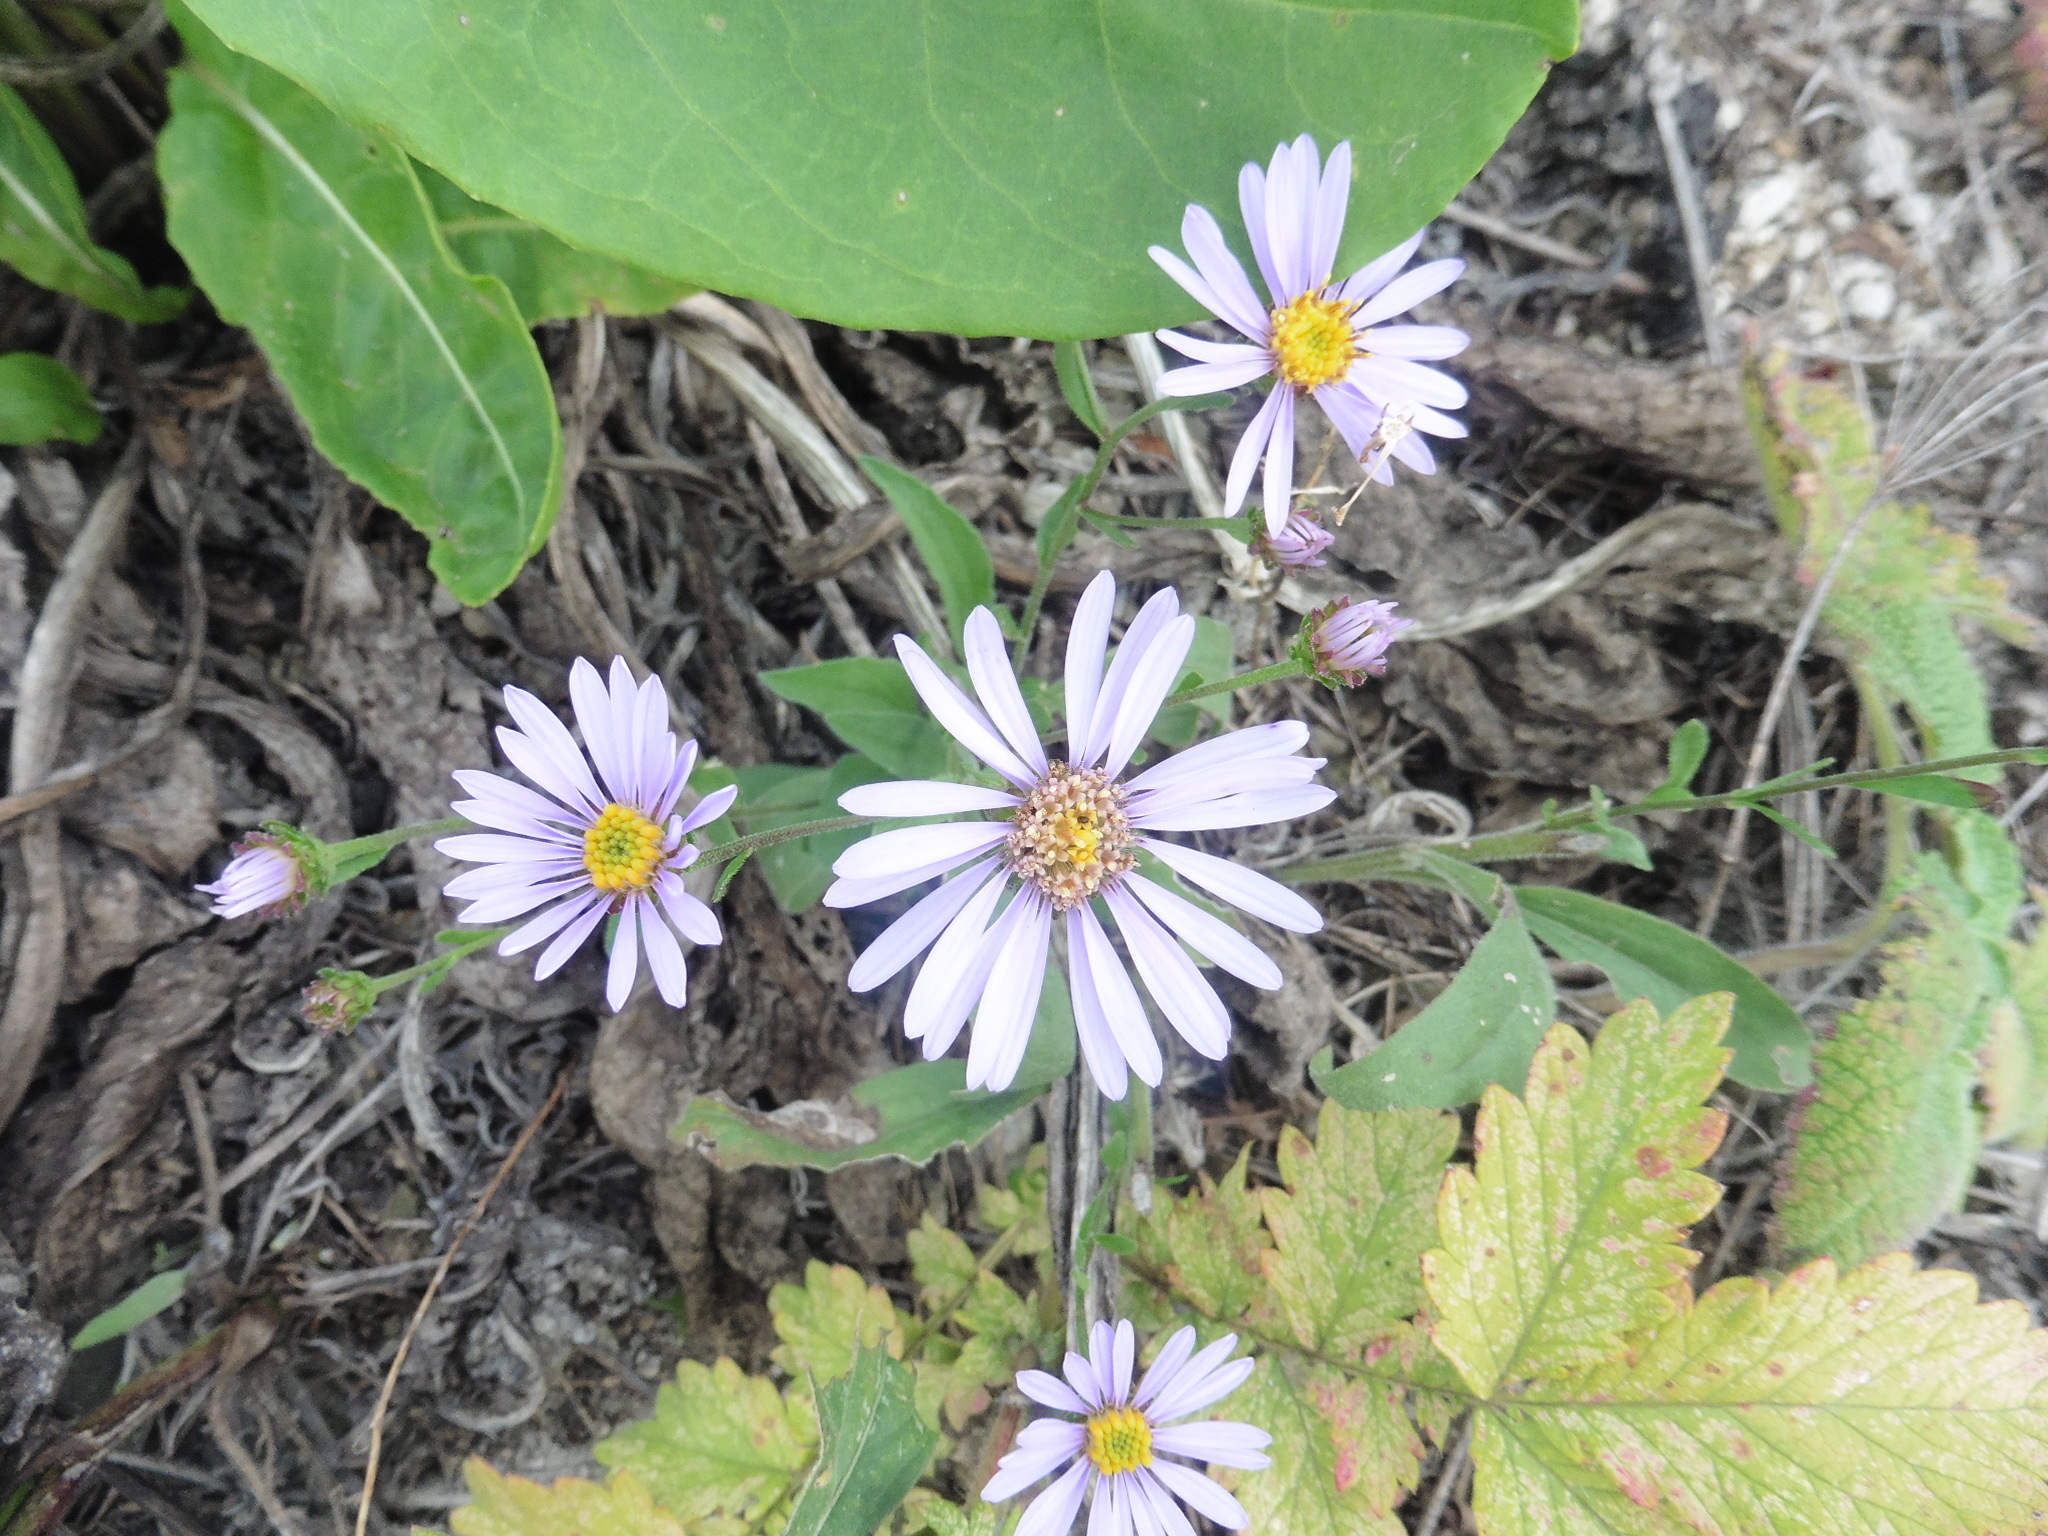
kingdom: Plantae
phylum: Tracheophyta
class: Magnoliopsida
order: Asterales
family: Asteraceae
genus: Aster
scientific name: Aster amellus
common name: European michaelmas daisy
